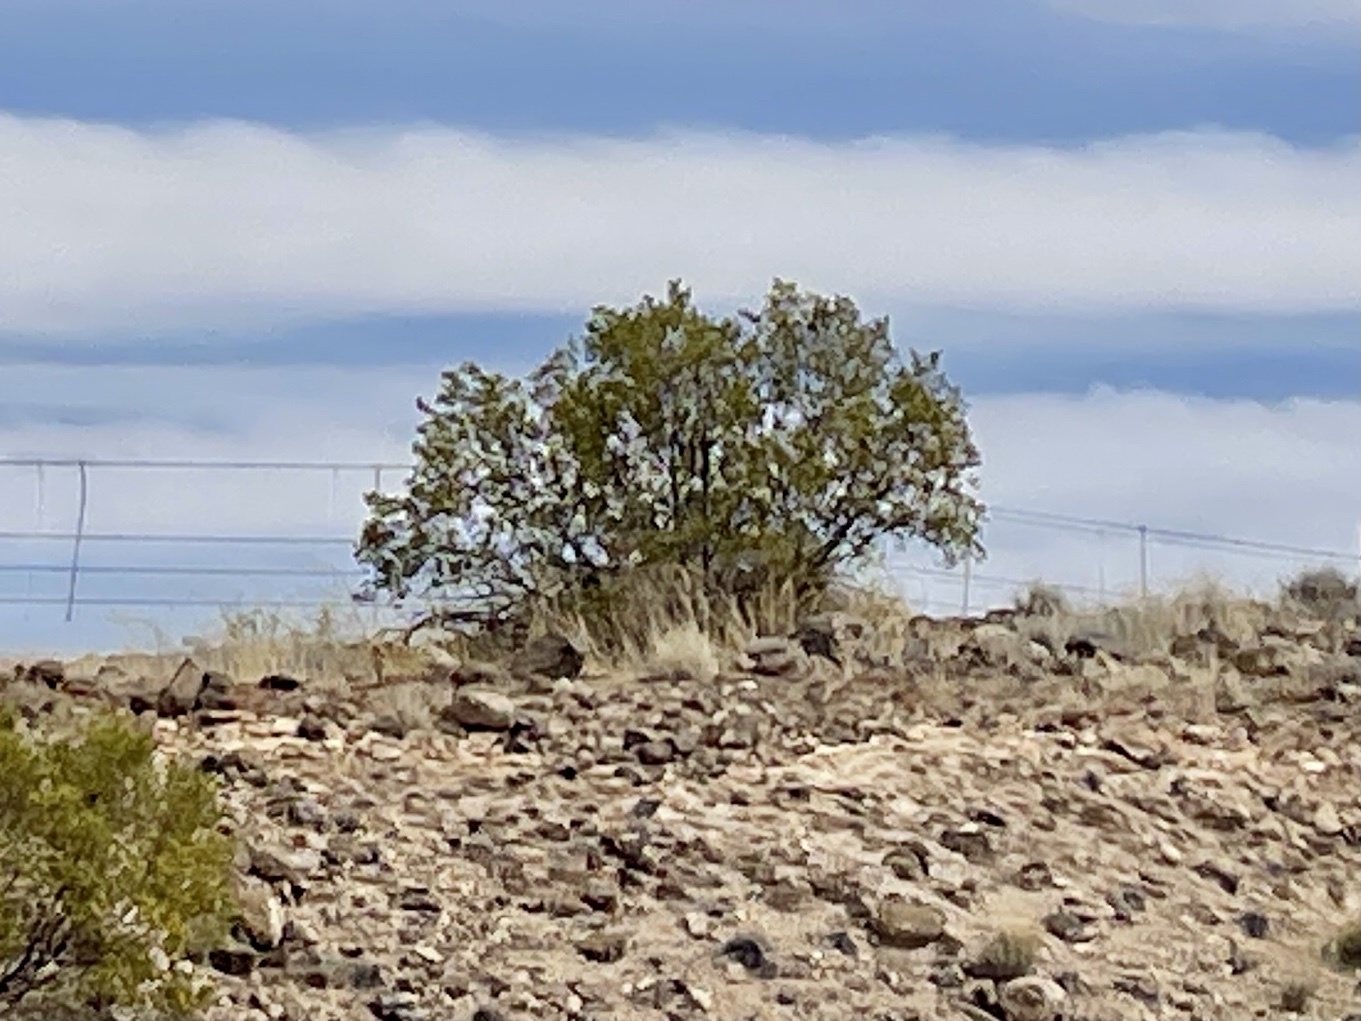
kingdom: Plantae
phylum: Tracheophyta
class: Magnoliopsida
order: Zygophyllales
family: Zygophyllaceae
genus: Larrea
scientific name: Larrea tridentata
